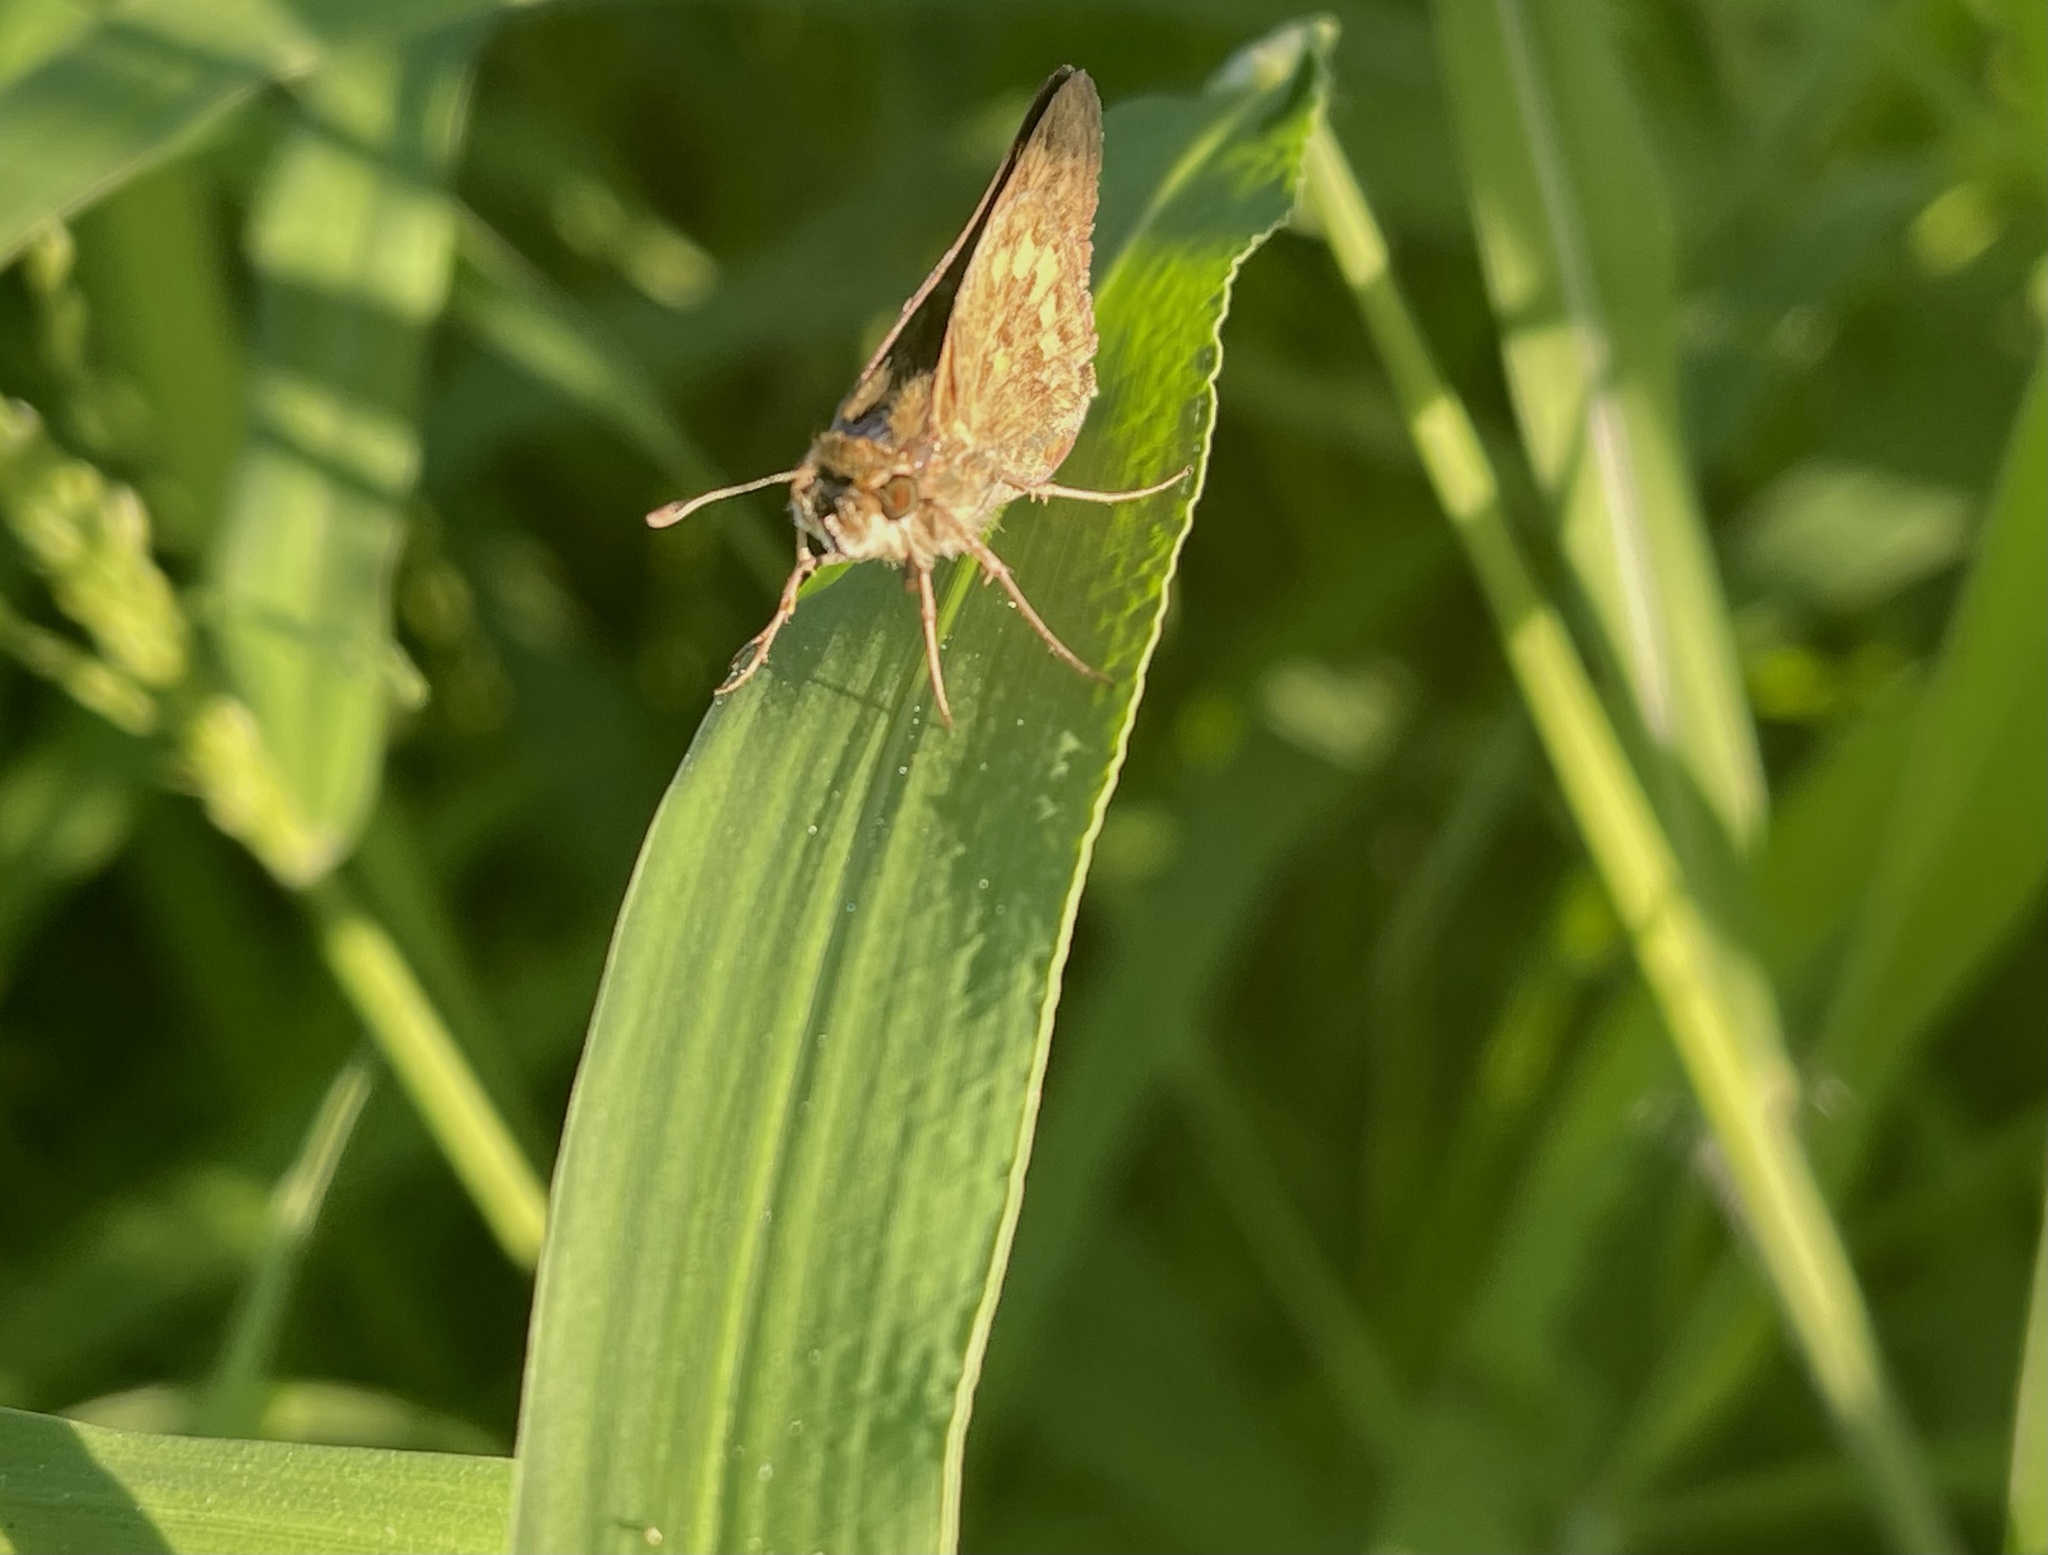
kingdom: Animalia
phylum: Arthropoda
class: Insecta
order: Lepidoptera
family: Hesperiidae
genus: Hylephila
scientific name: Hylephila phyleus
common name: Fiery skipper
